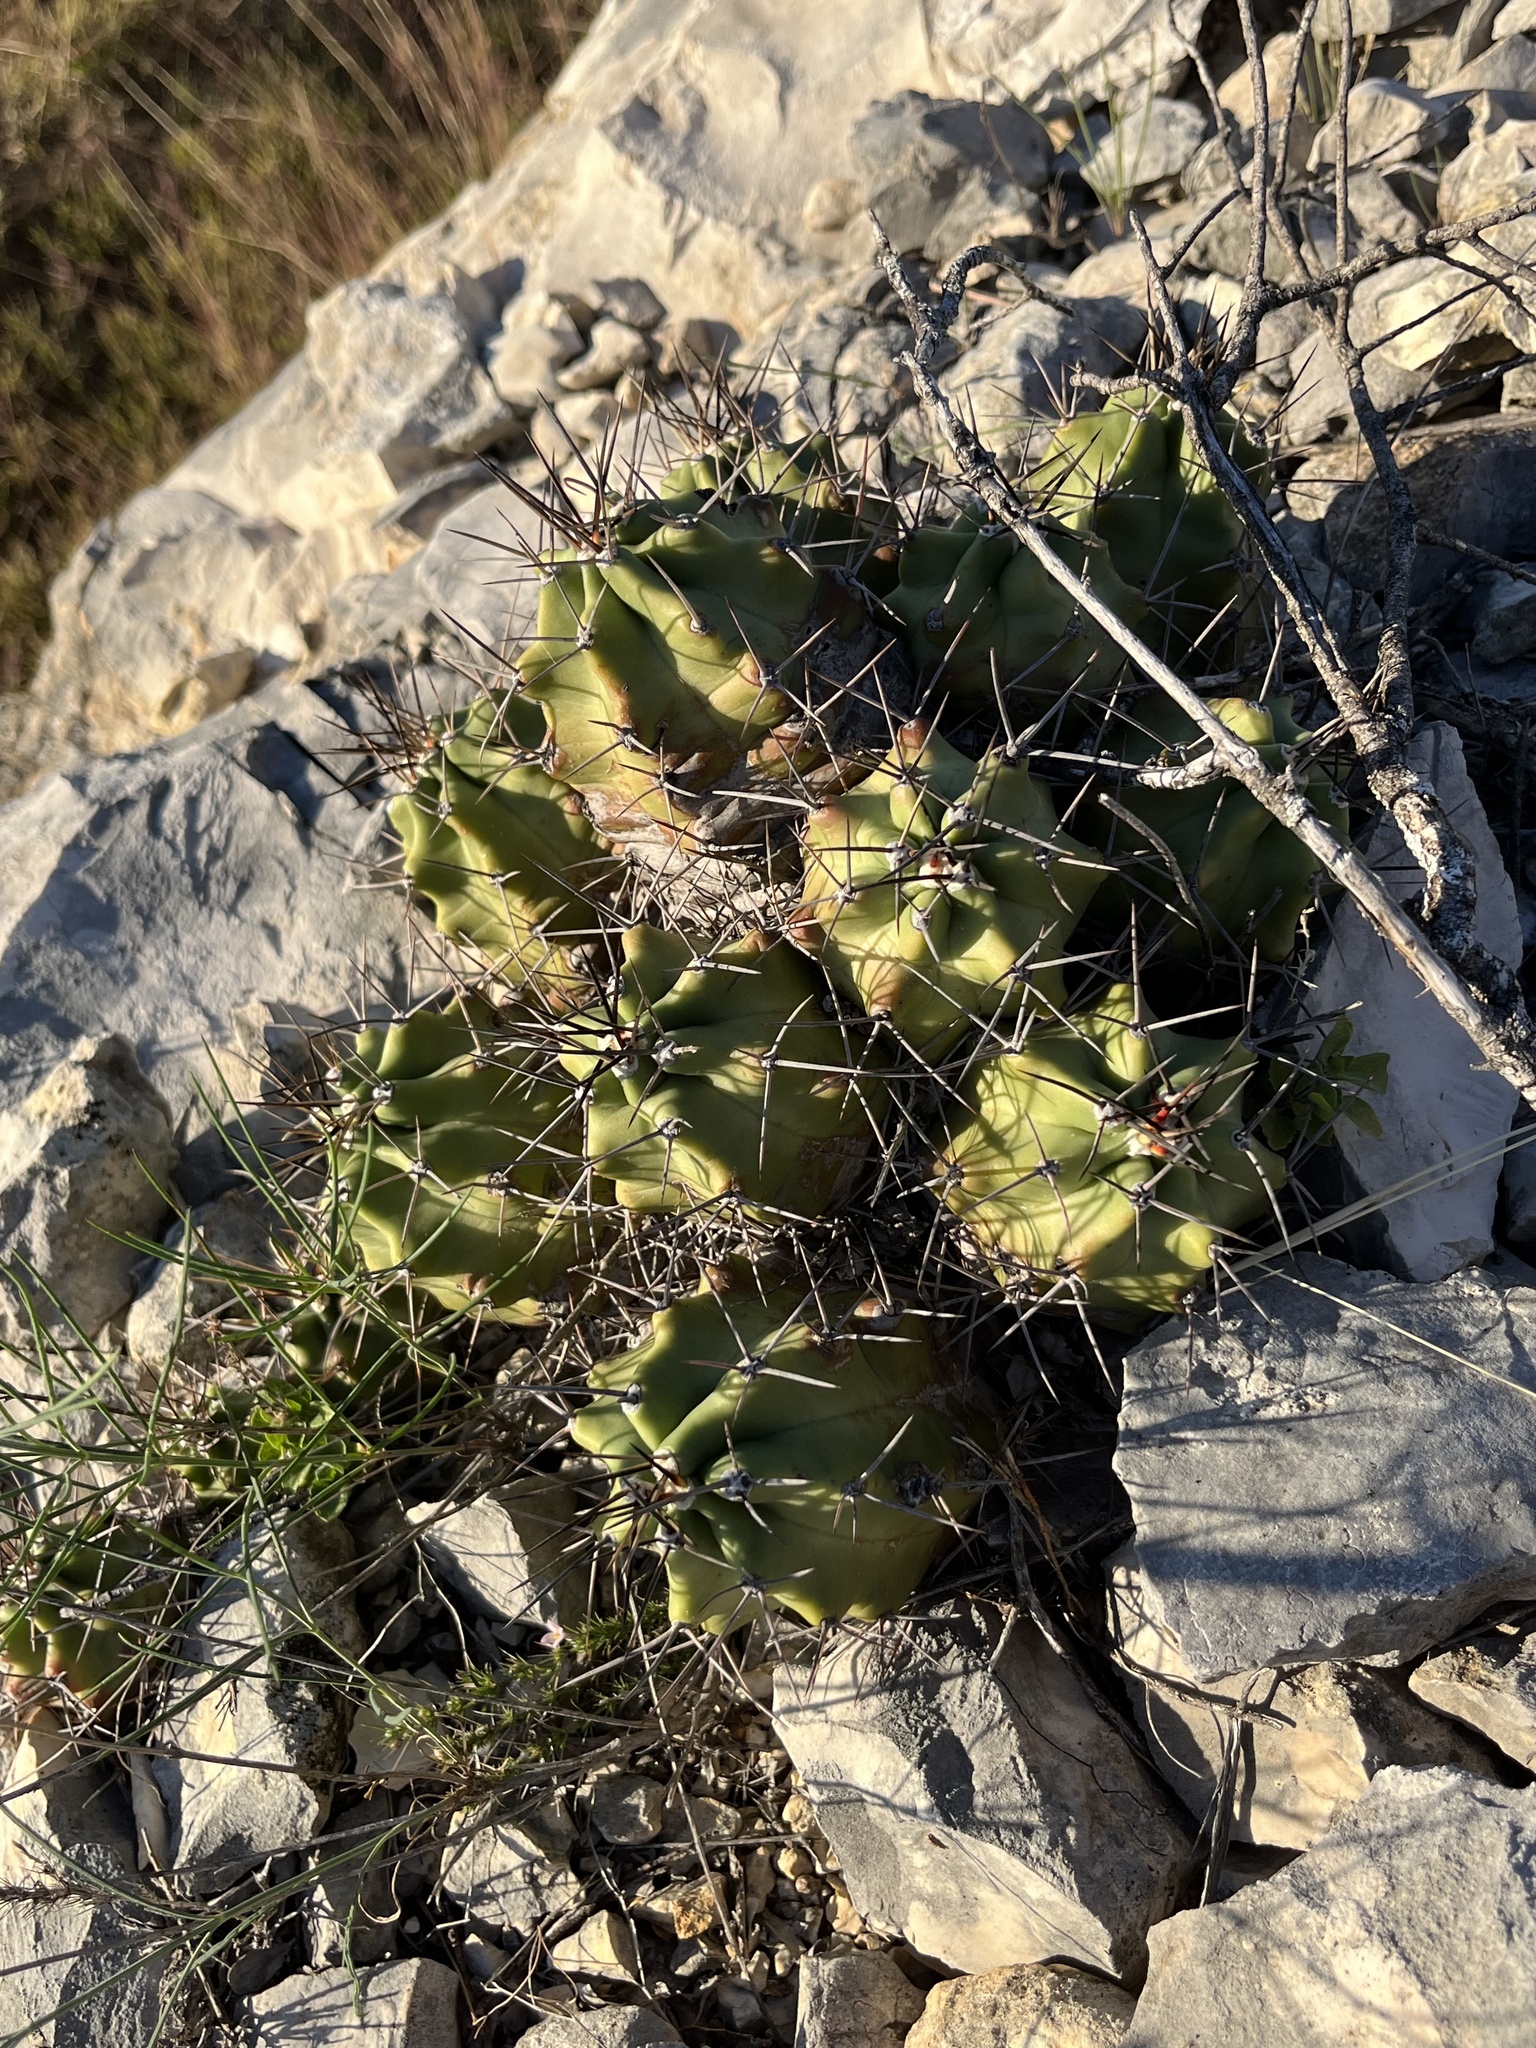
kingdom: Plantae
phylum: Tracheophyta
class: Magnoliopsida
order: Caryophyllales
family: Cactaceae
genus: Echinocereus
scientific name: Echinocereus coccineus
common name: Scarlet hedgehog cactus
